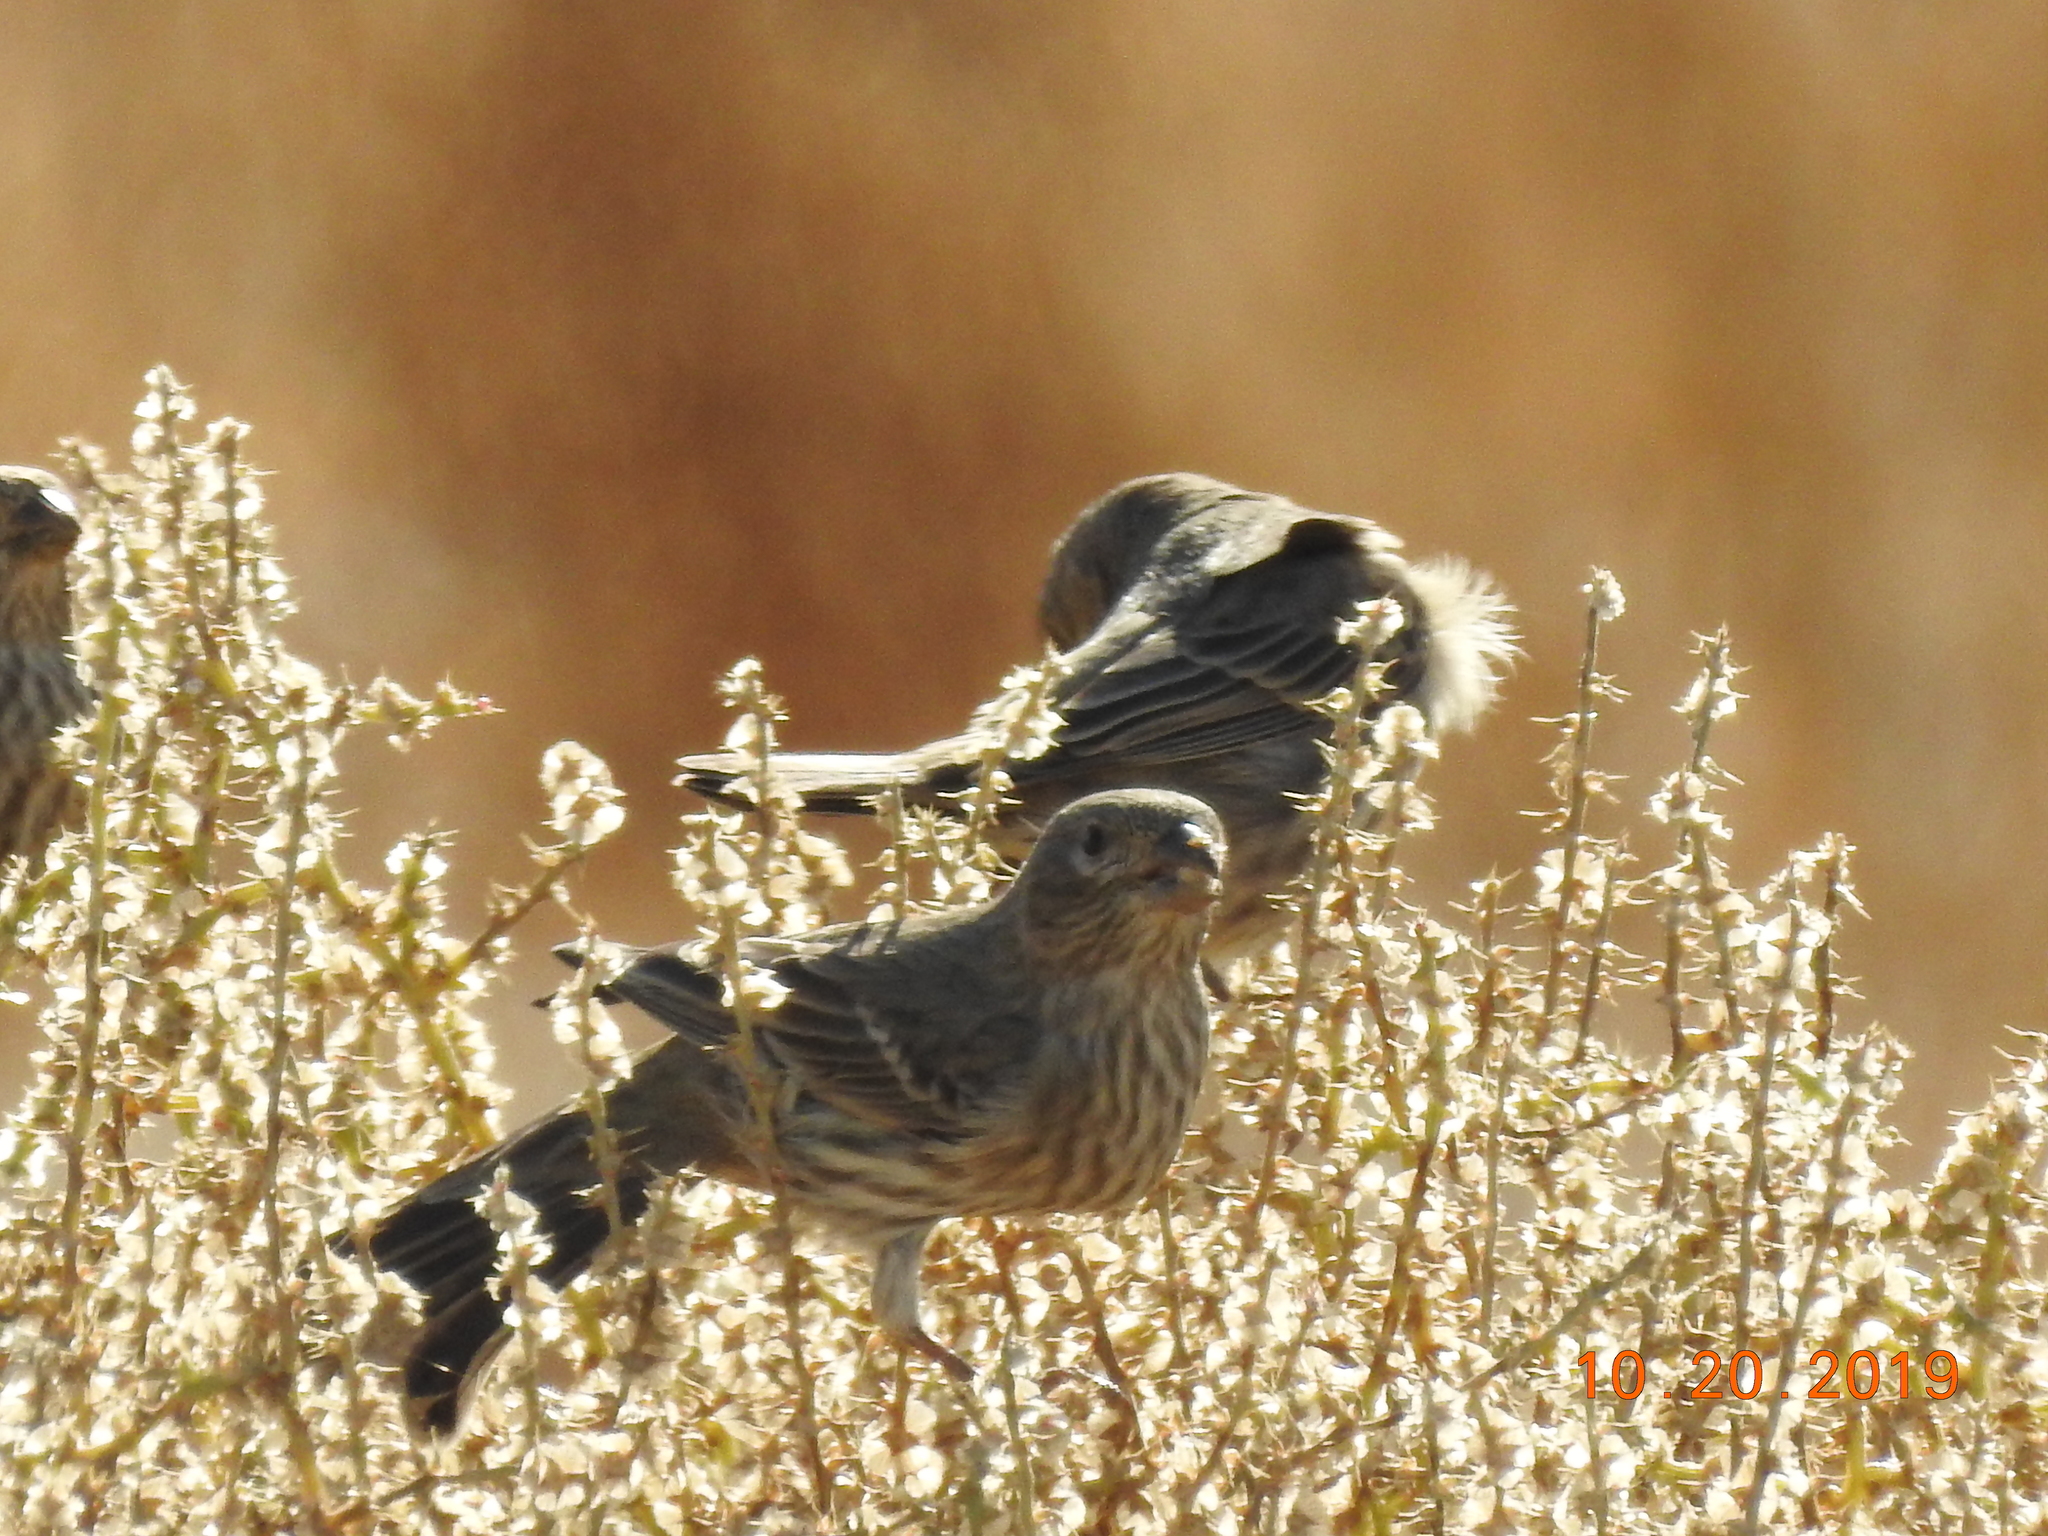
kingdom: Animalia
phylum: Chordata
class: Aves
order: Passeriformes
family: Fringillidae
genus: Haemorhous
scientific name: Haemorhous mexicanus
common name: House finch
